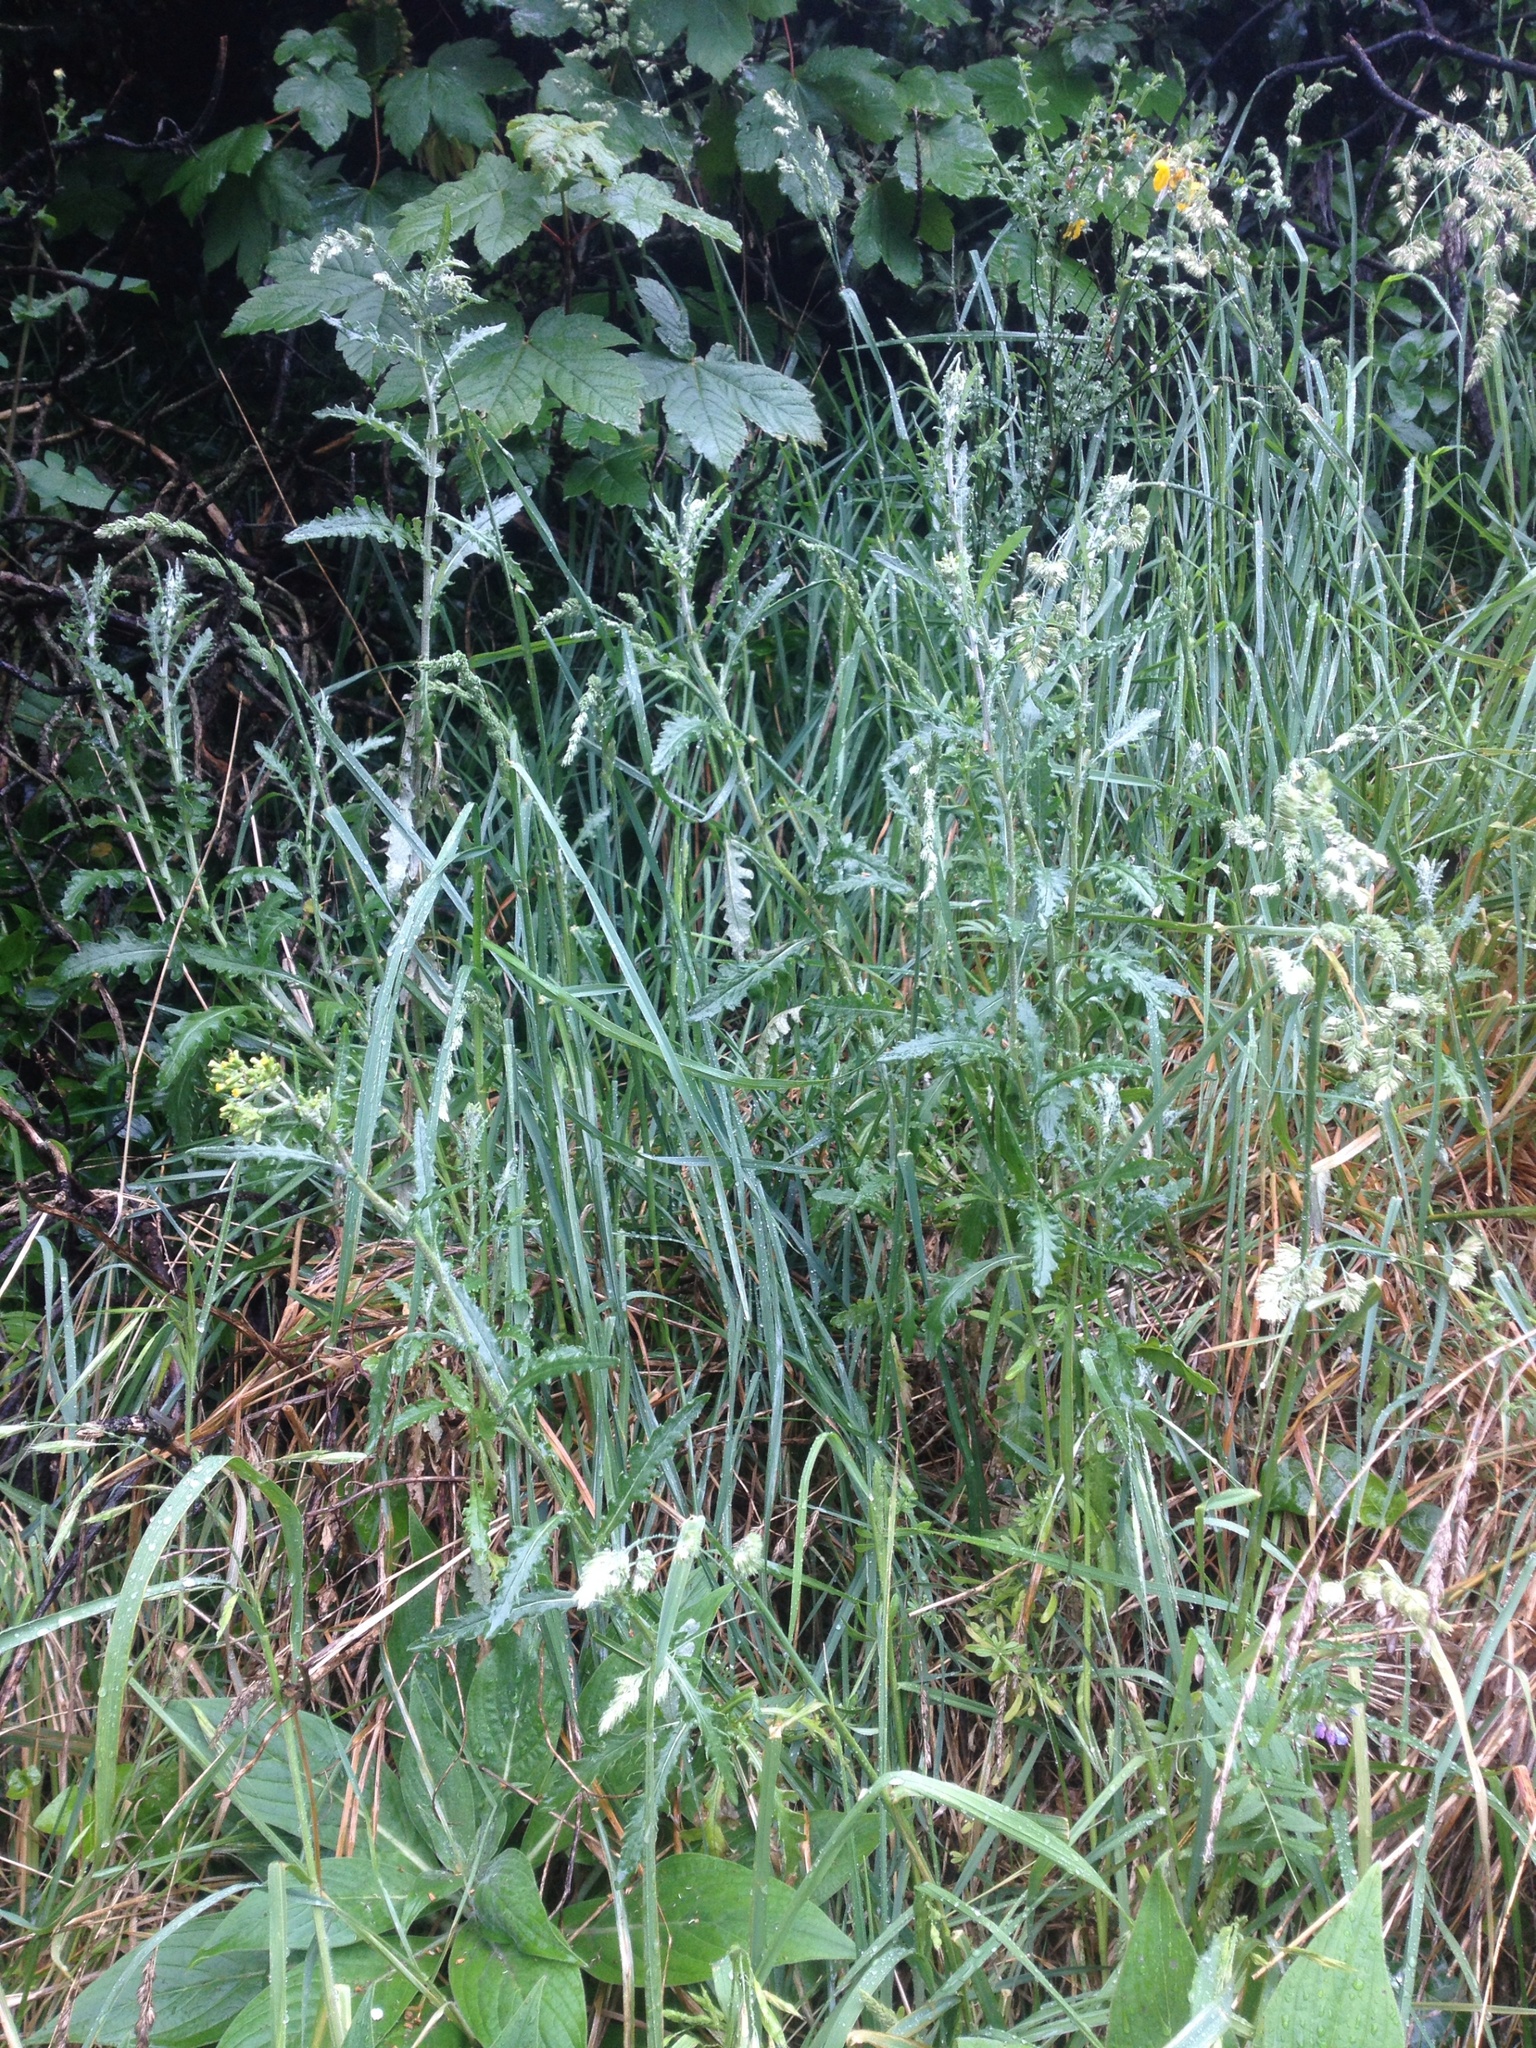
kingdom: Plantae
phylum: Tracheophyta
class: Magnoliopsida
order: Asterales
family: Asteraceae
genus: Senecio
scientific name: Senecio glomeratus
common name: Cutleaf burnweed
